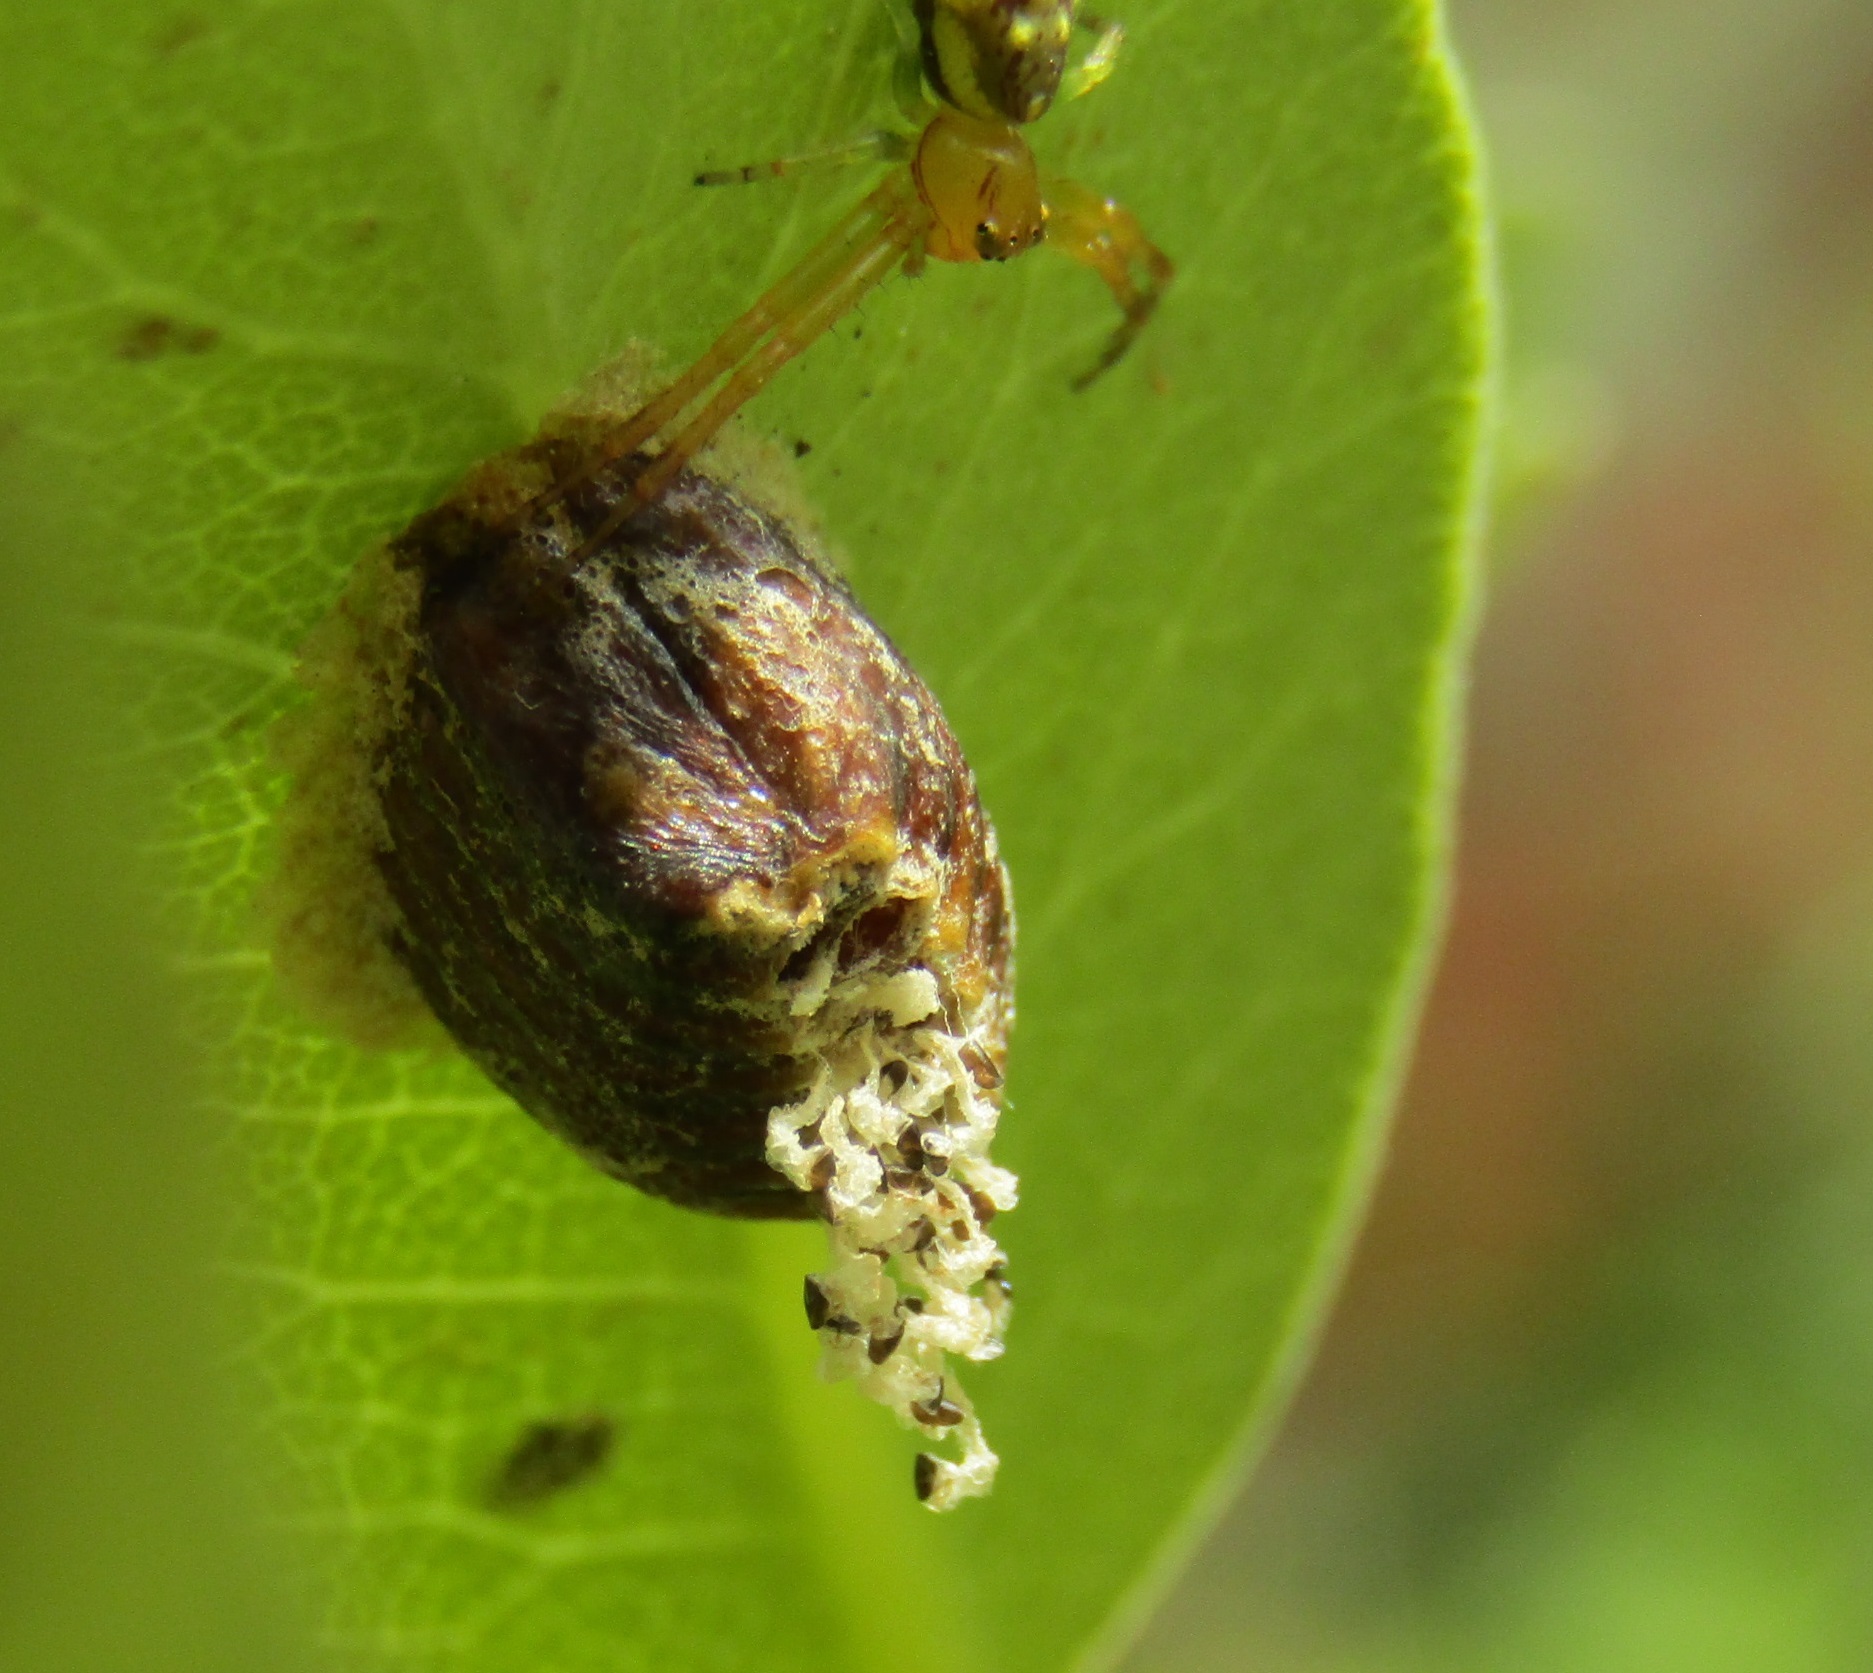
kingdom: Animalia
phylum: Arthropoda
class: Insecta
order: Mantodea
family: Mantidae
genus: Orthodera
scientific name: Orthodera novaezealandiae
